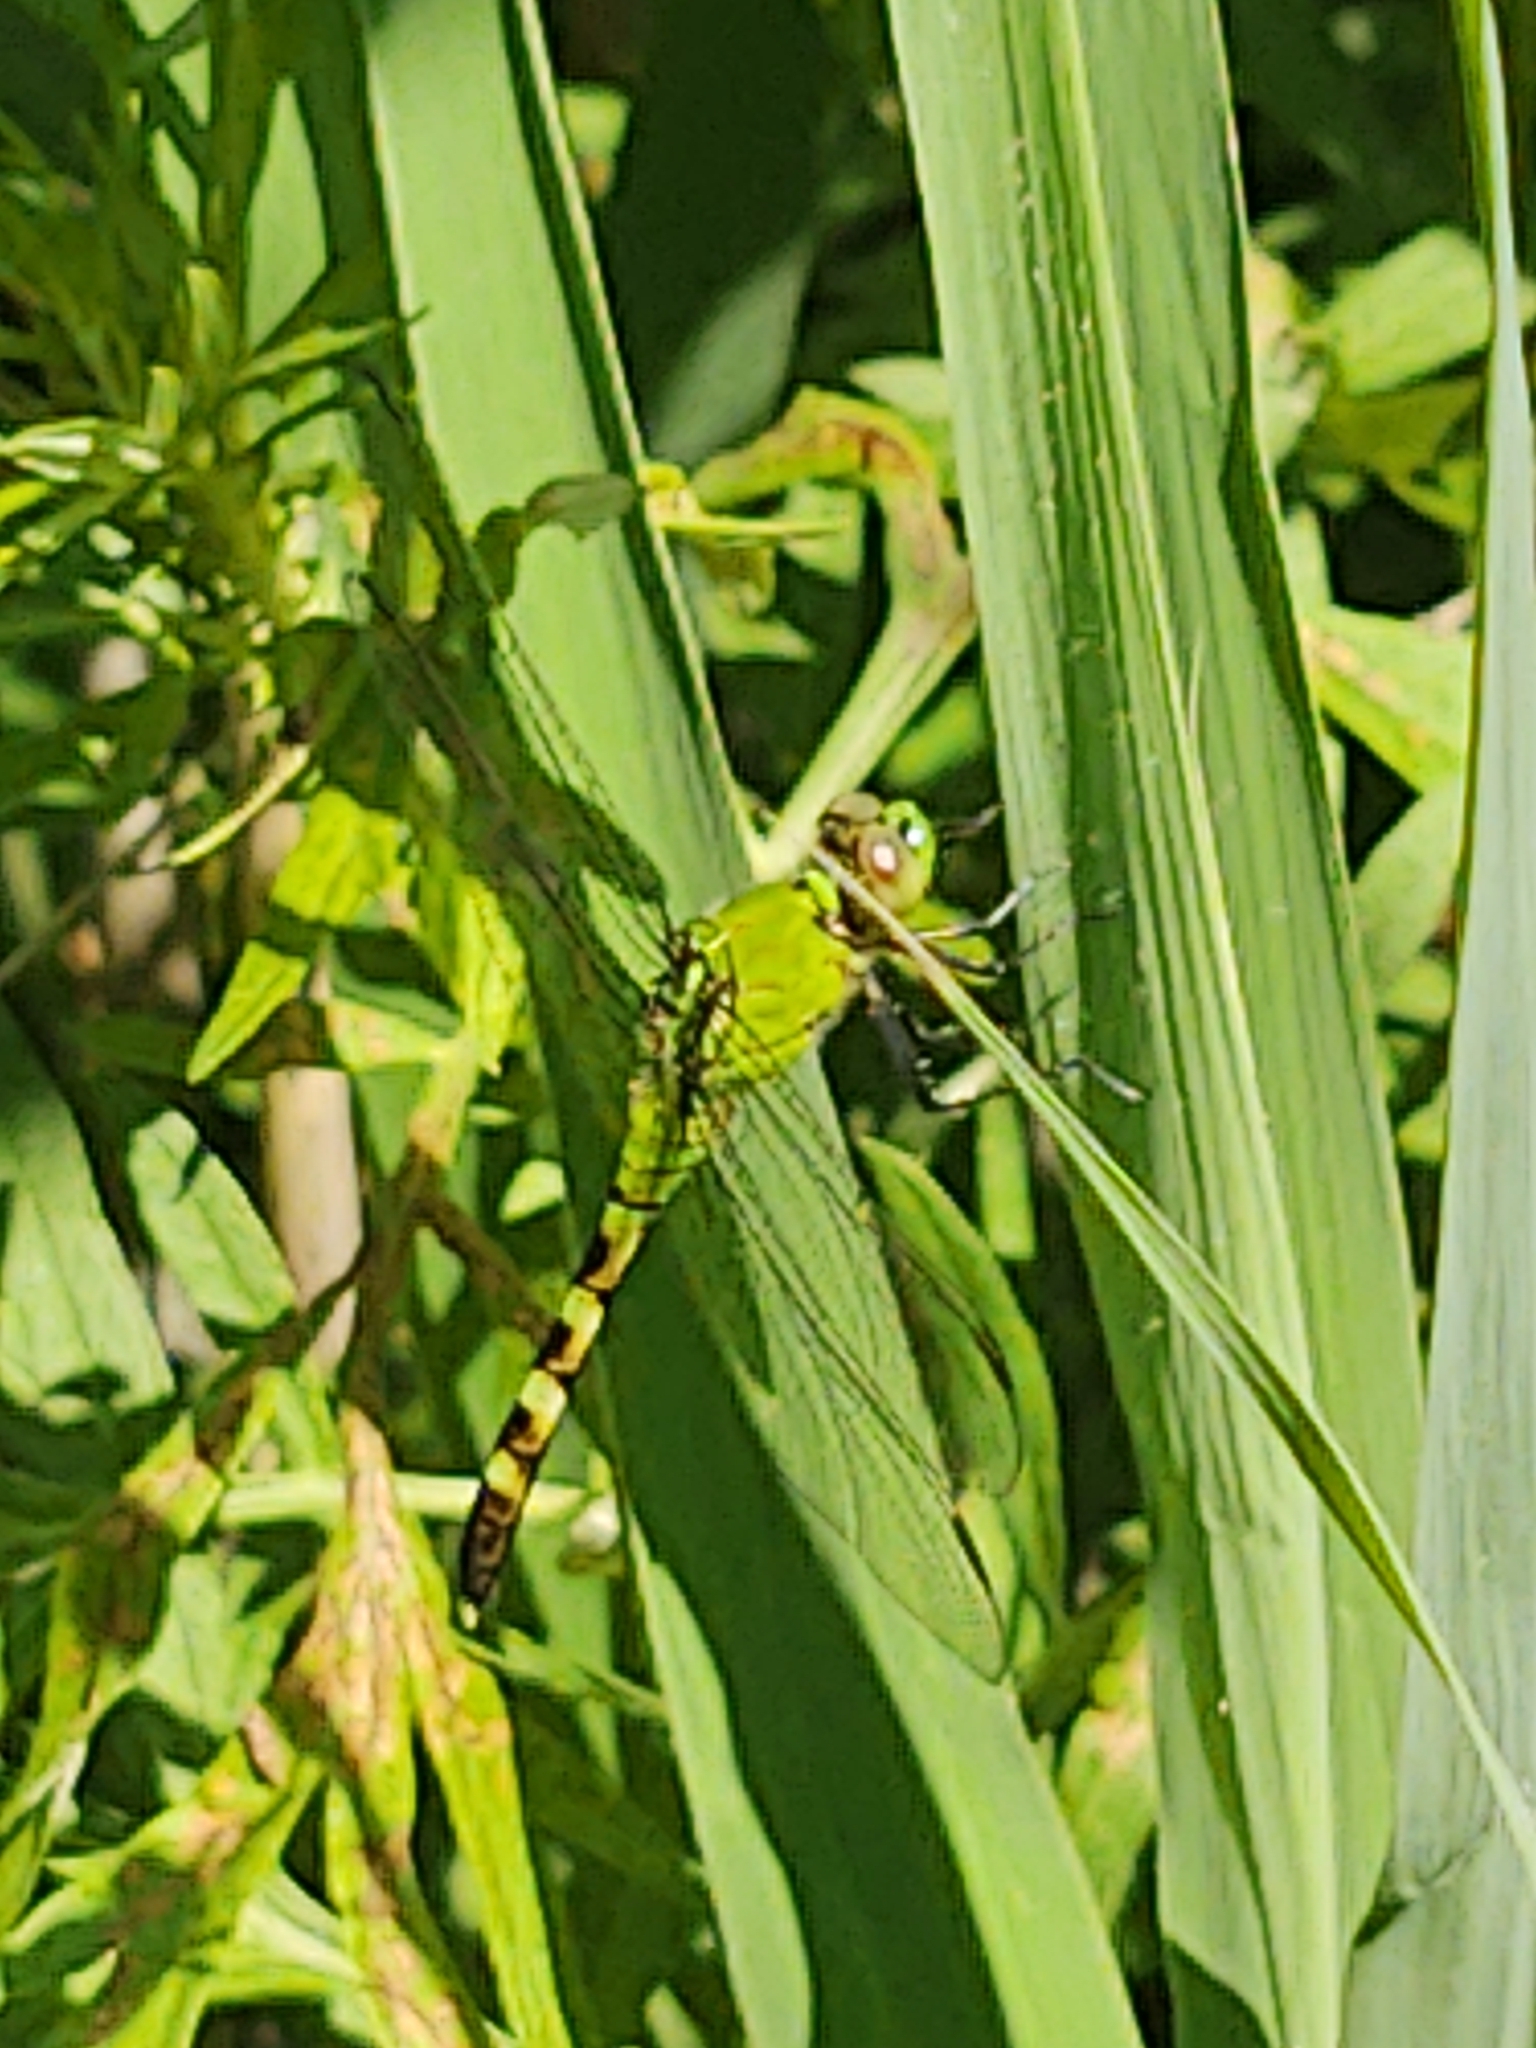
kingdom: Animalia
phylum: Arthropoda
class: Insecta
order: Odonata
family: Libellulidae
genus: Erythemis
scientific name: Erythemis simplicicollis
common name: Eastern pondhawk
